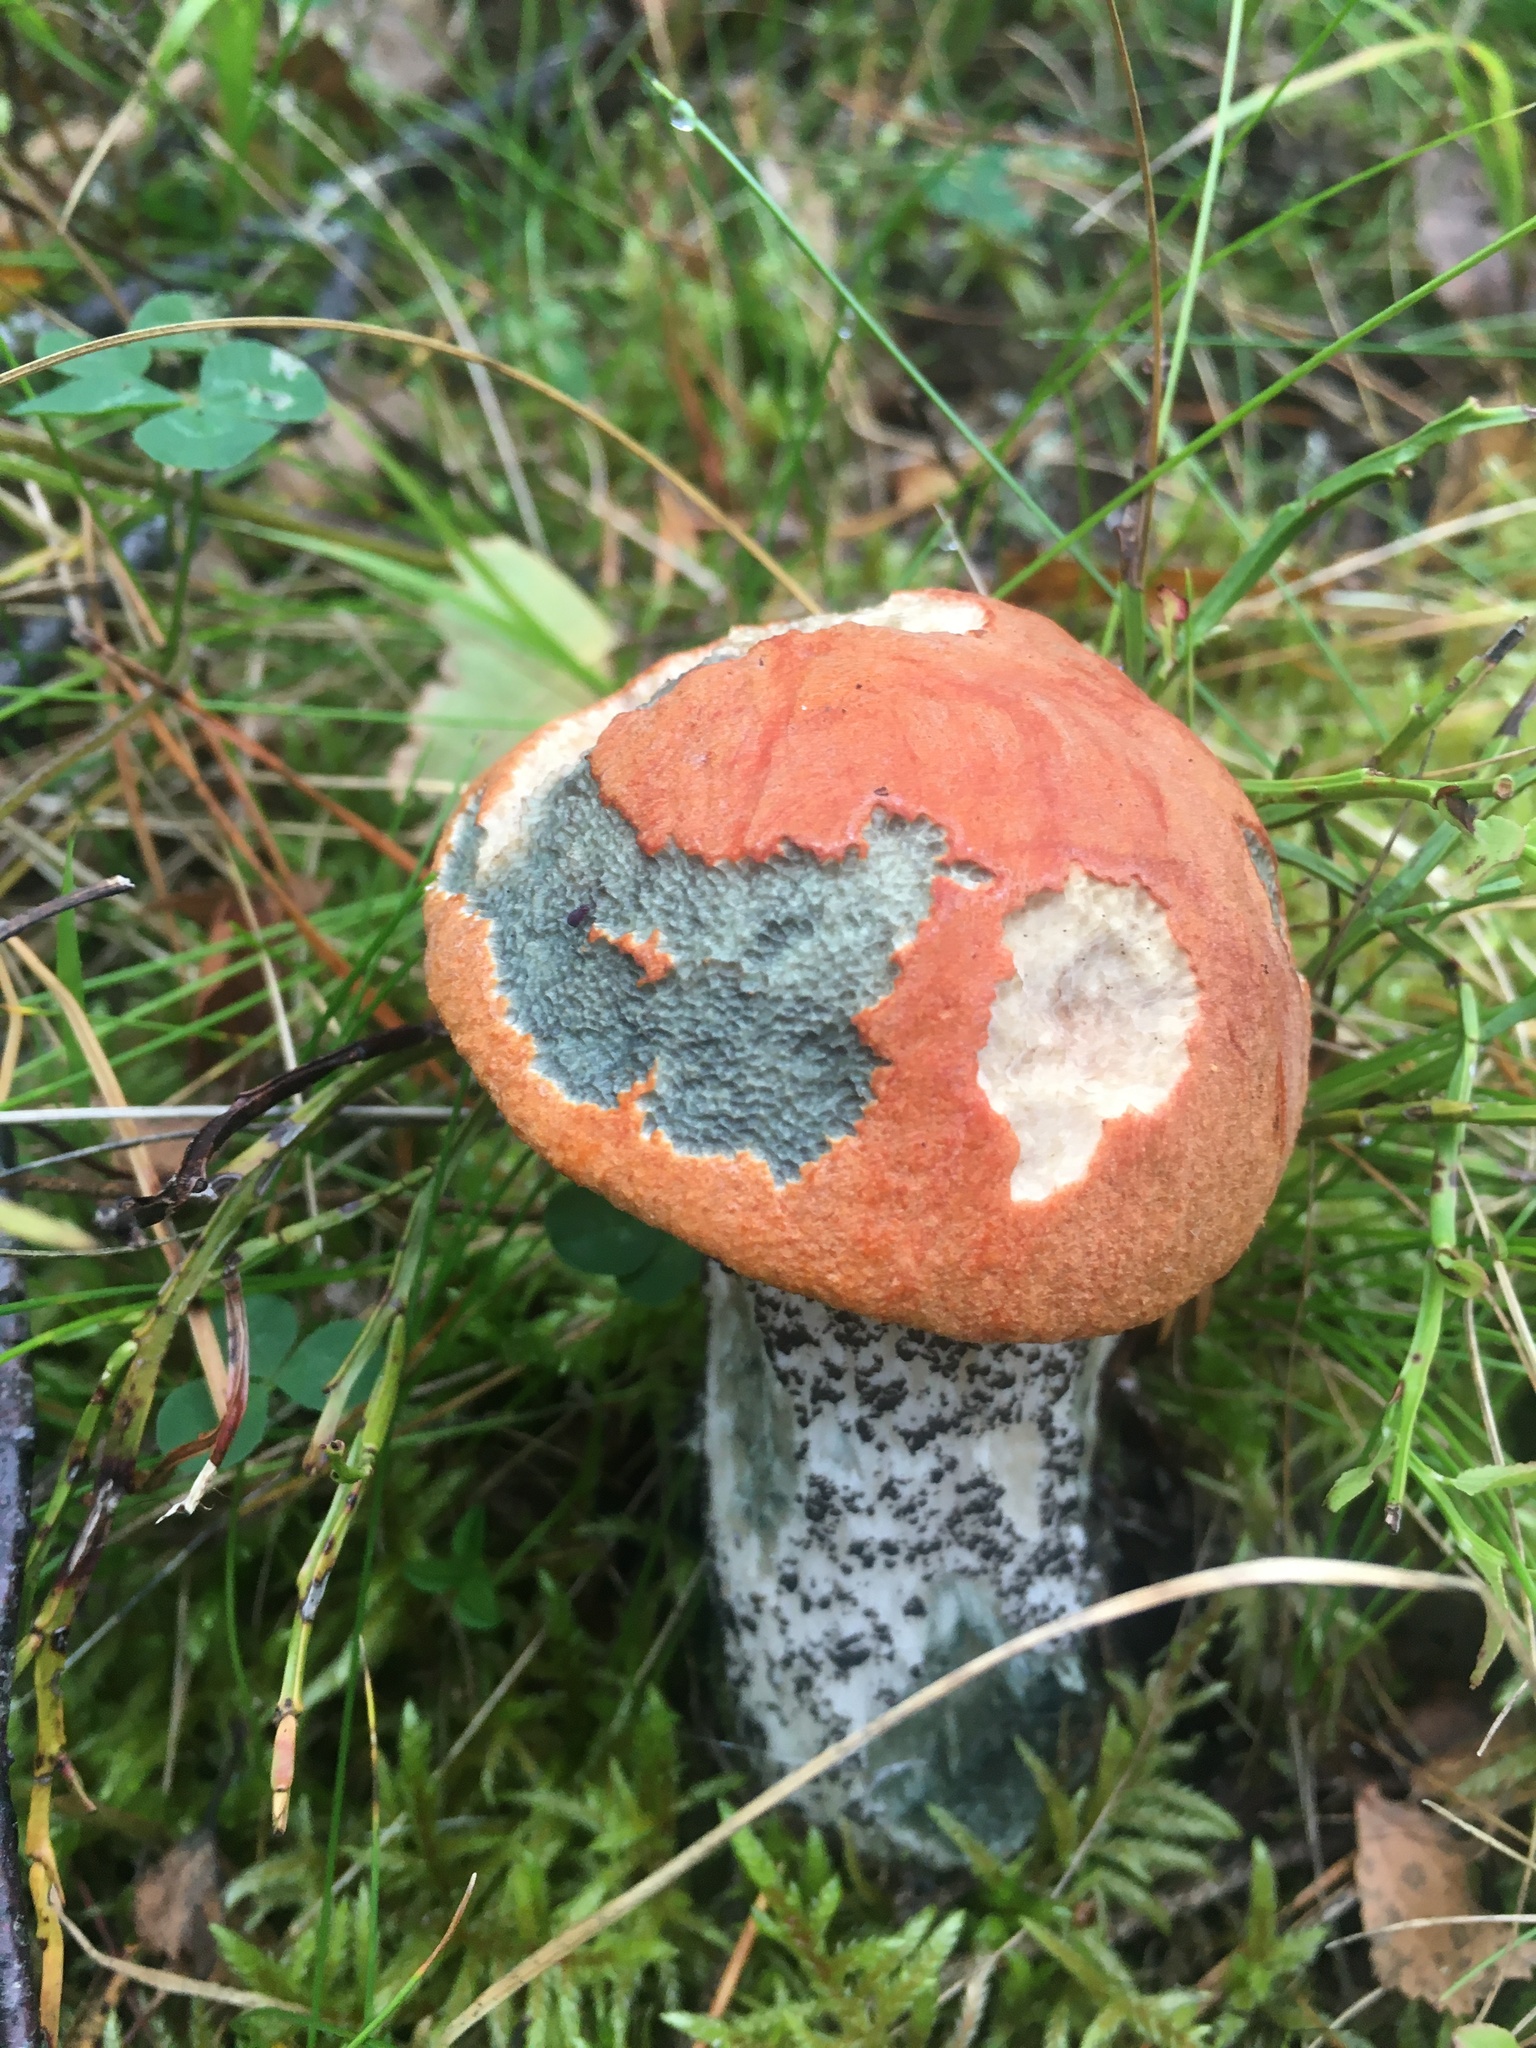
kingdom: Fungi
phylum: Basidiomycota
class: Agaricomycetes
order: Boletales
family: Boletaceae
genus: Leccinum
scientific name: Leccinum versipelle
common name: Orange birch bolete
